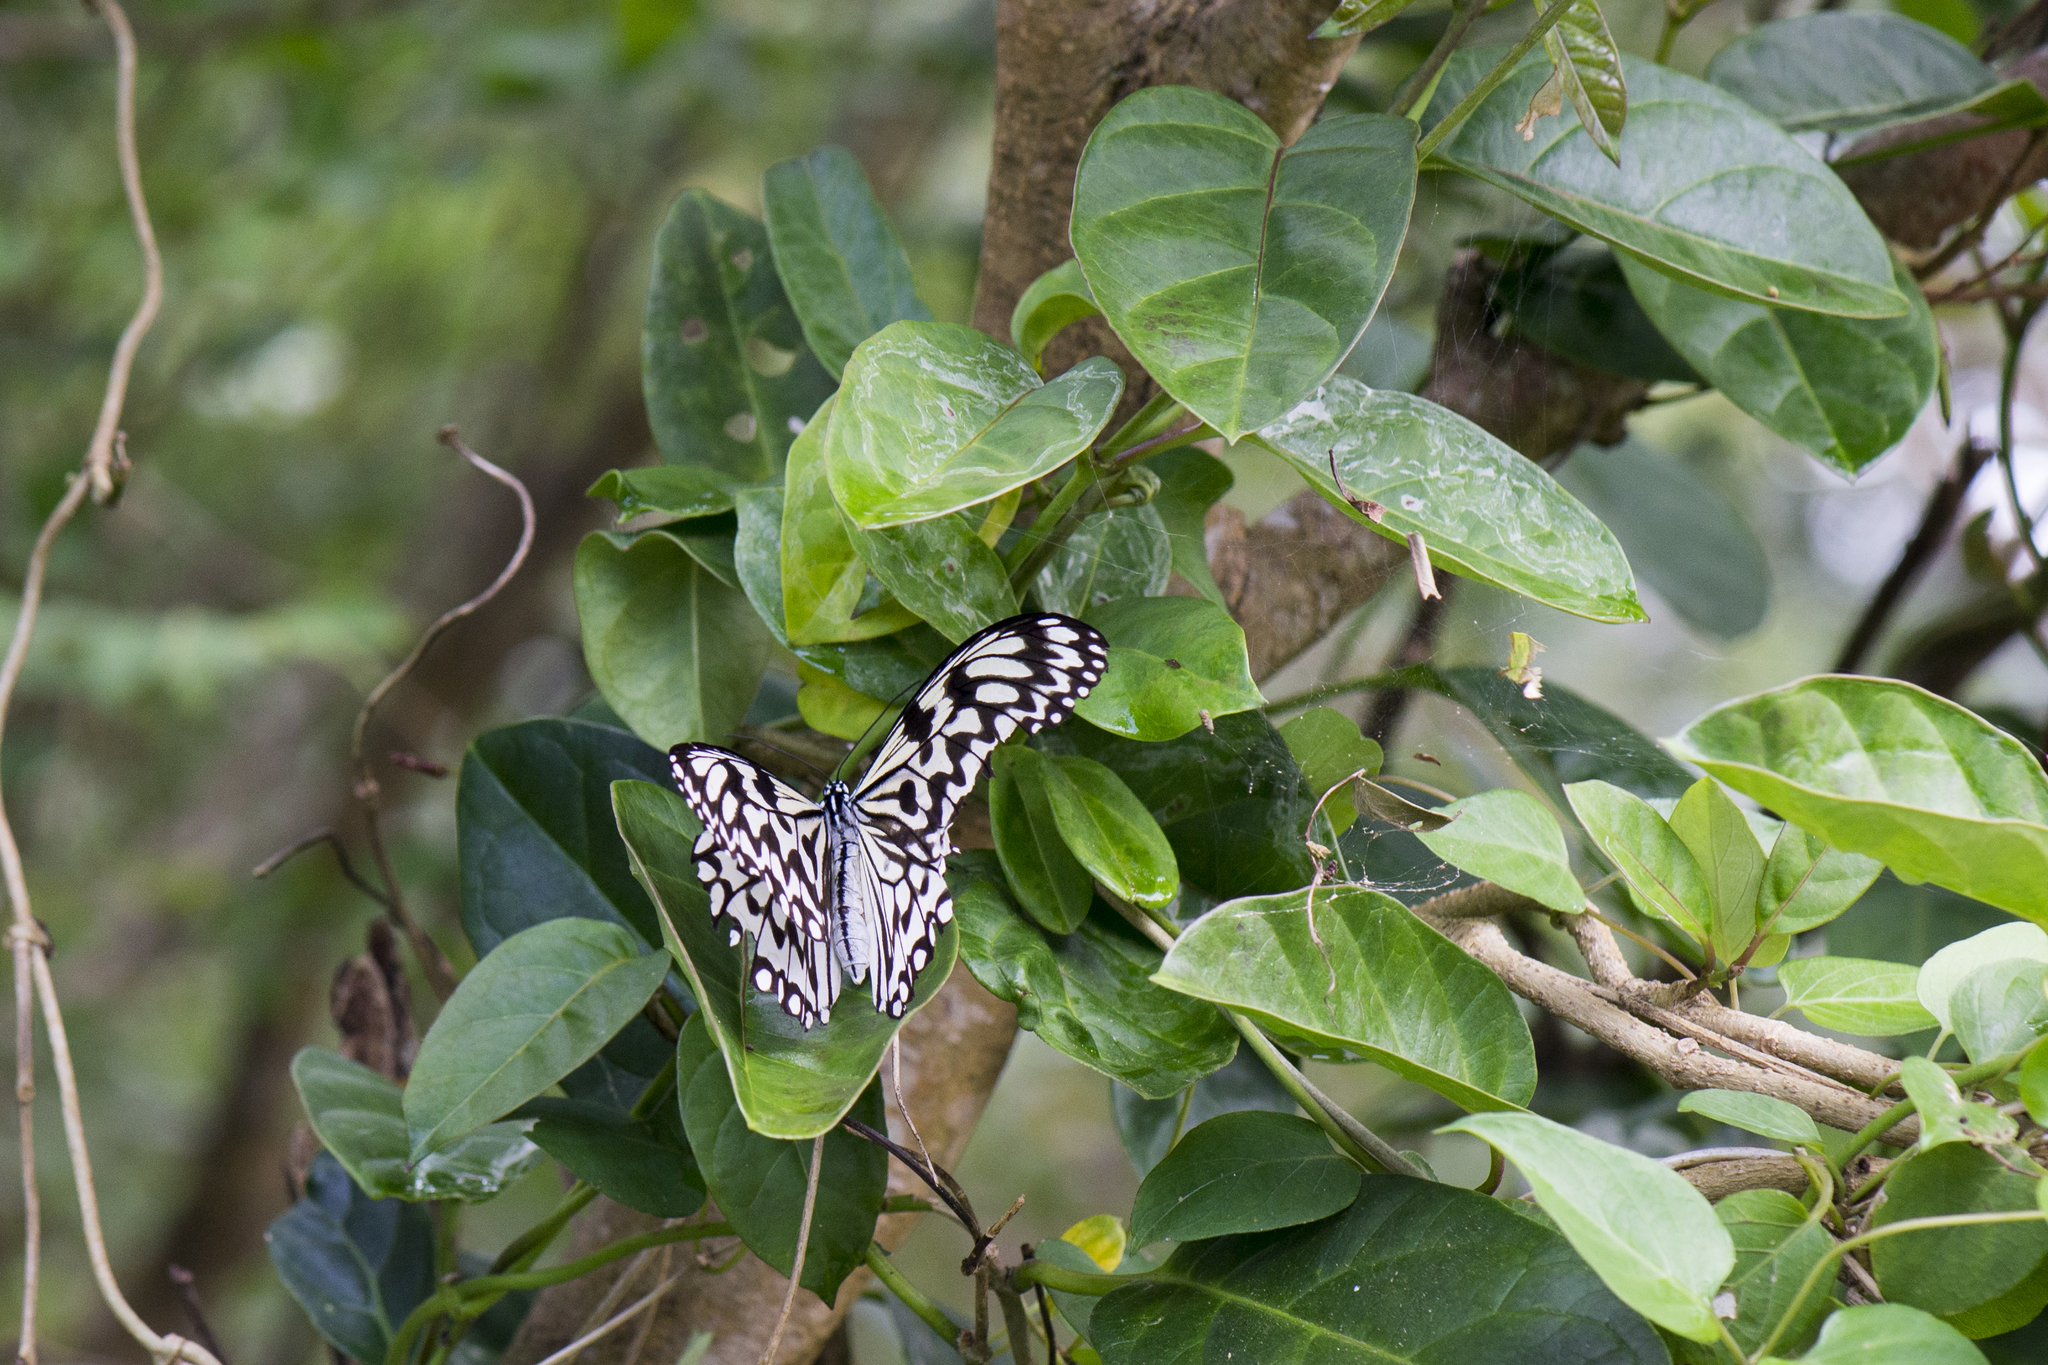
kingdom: Animalia
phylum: Arthropoda
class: Insecta
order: Lepidoptera
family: Nymphalidae
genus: Idea
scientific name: Idea leuconoe
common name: Rice paper butterfly
